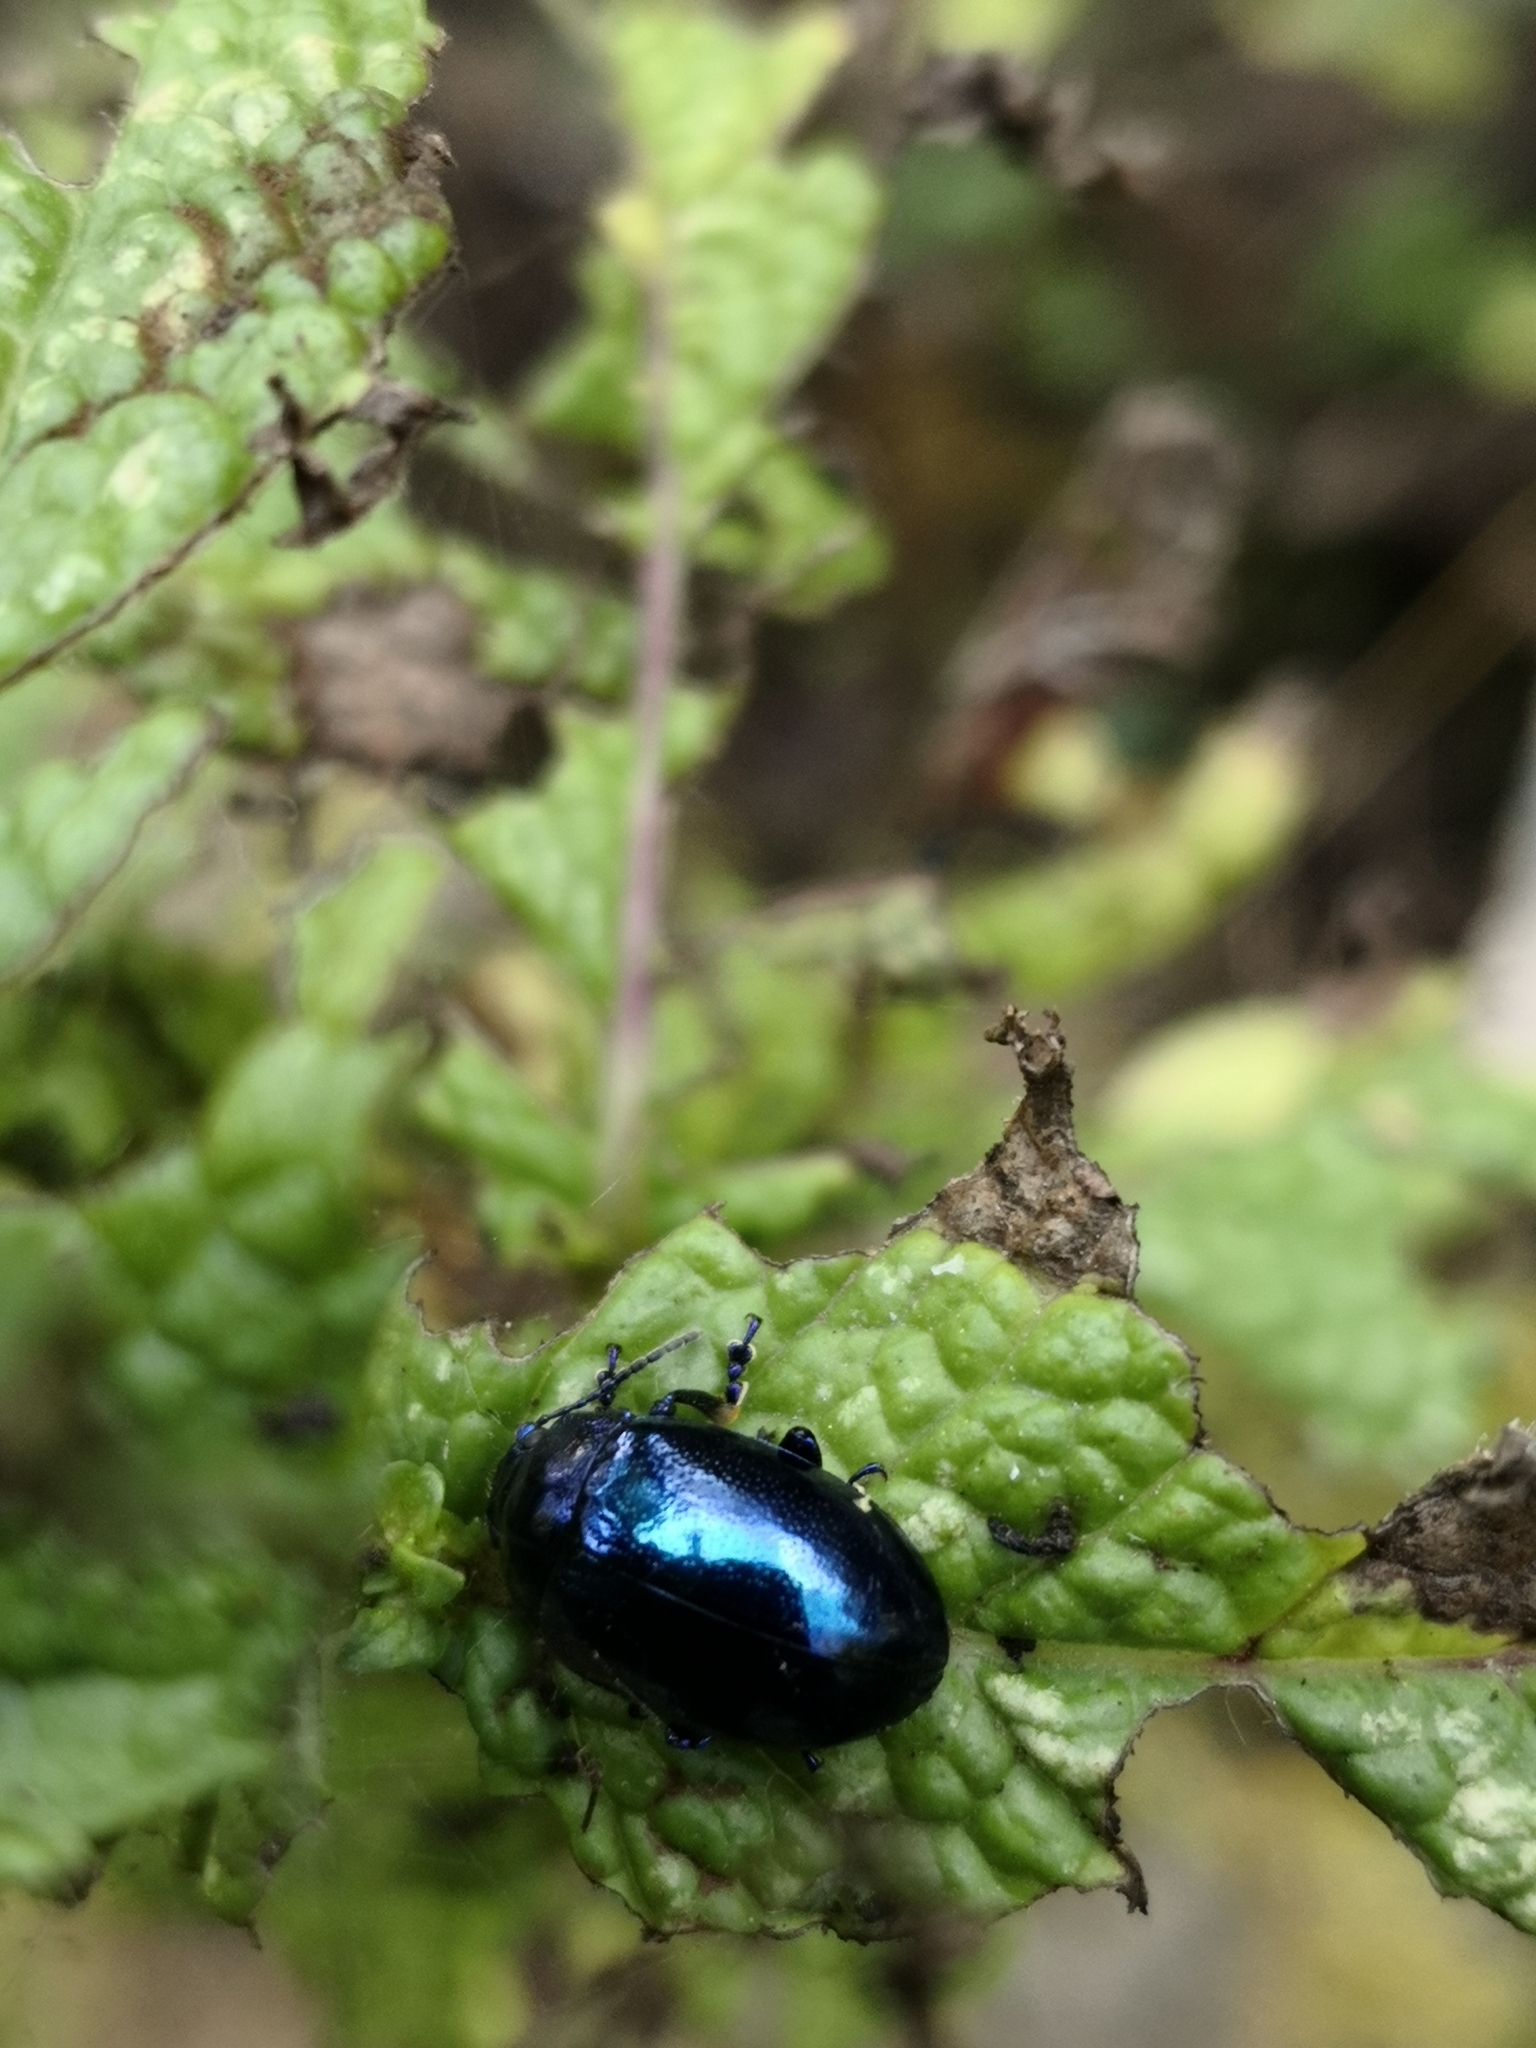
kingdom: Animalia
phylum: Arthropoda
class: Insecta
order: Coleoptera
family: Chrysomelidae
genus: Chrysolina
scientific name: Chrysolina coerulans
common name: Blue mint beetle
